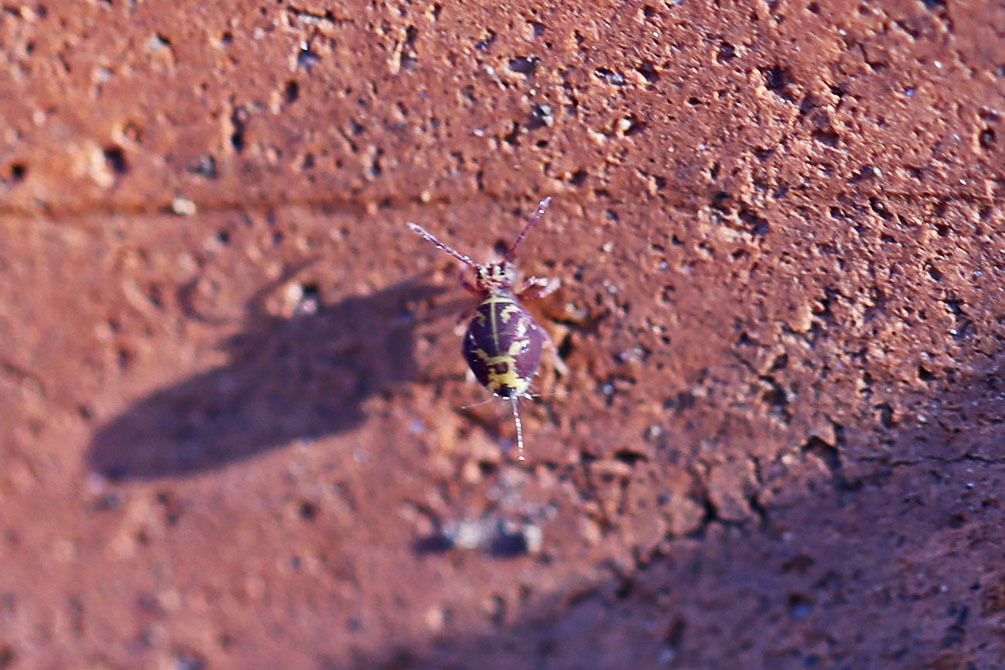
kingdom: Animalia
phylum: Arthropoda
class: Collembola
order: Symphypleona
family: Dicyrtomidae
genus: Dicyrtomina
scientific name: Dicyrtomina minuta
